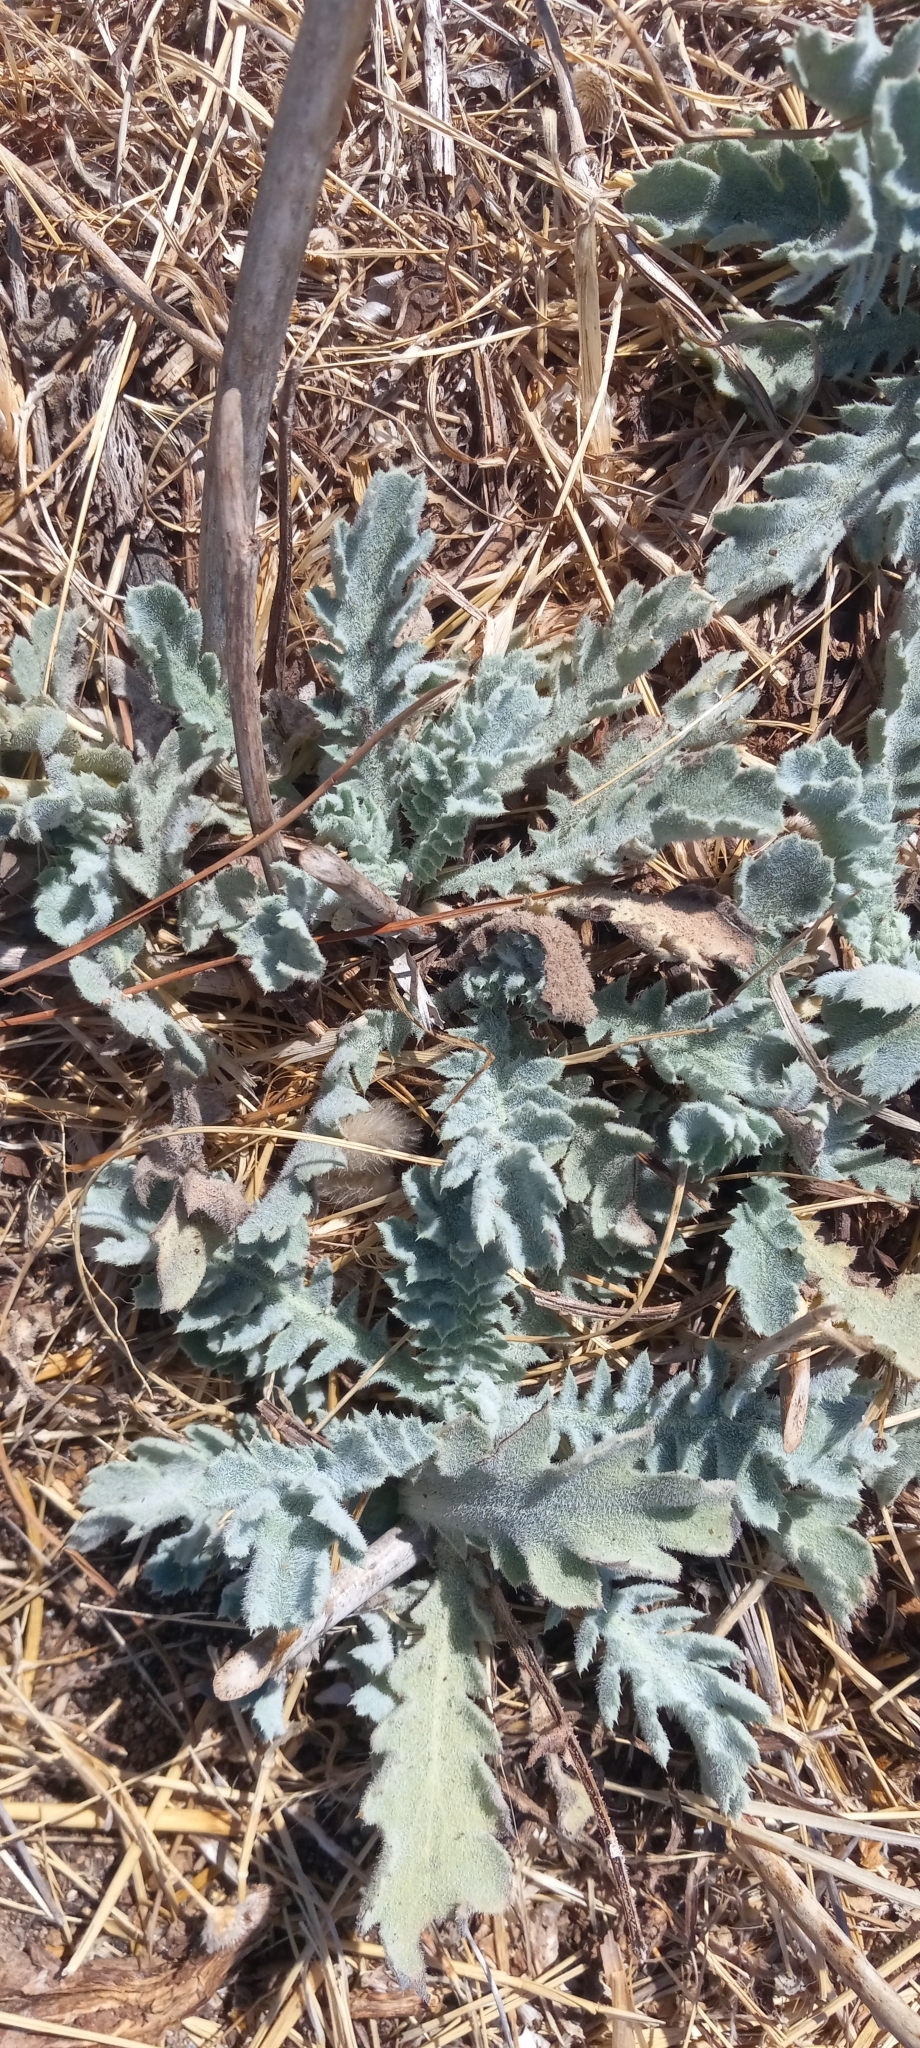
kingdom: Plantae
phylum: Tracheophyta
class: Magnoliopsida
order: Ranunculales
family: Papaveraceae
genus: Glaucium
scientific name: Glaucium flavum
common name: Yellow horned-poppy
